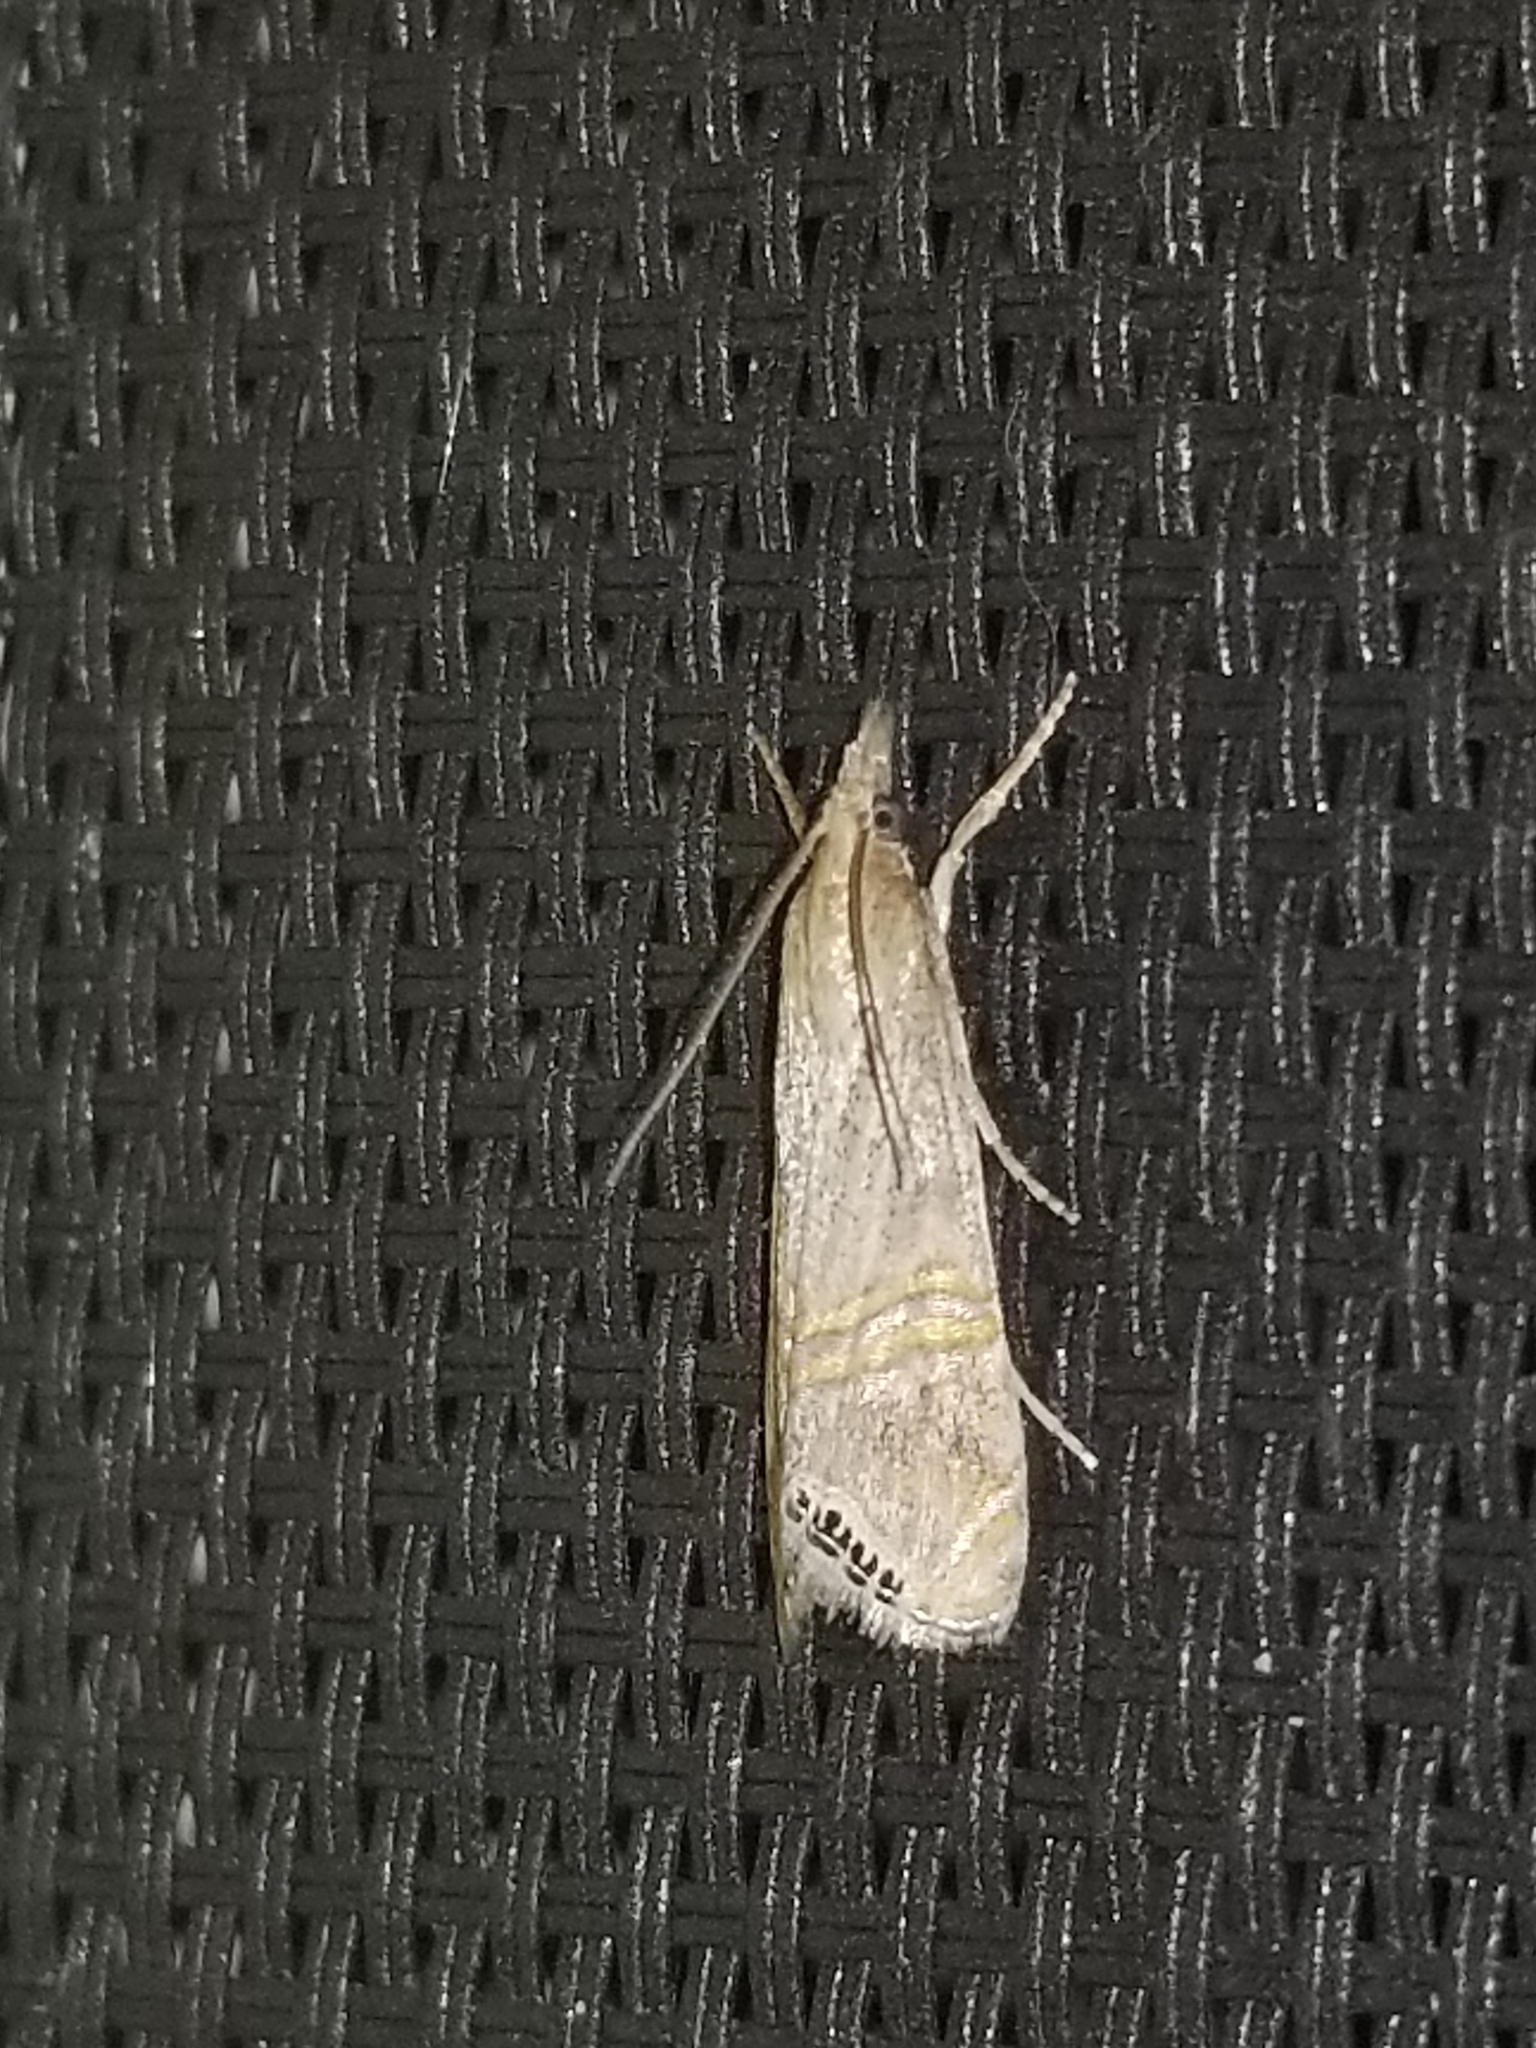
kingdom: Animalia
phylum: Arthropoda
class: Insecta
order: Lepidoptera
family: Crambidae
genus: Euchromius
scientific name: Euchromius ocellea
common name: Necklace veneer moth
